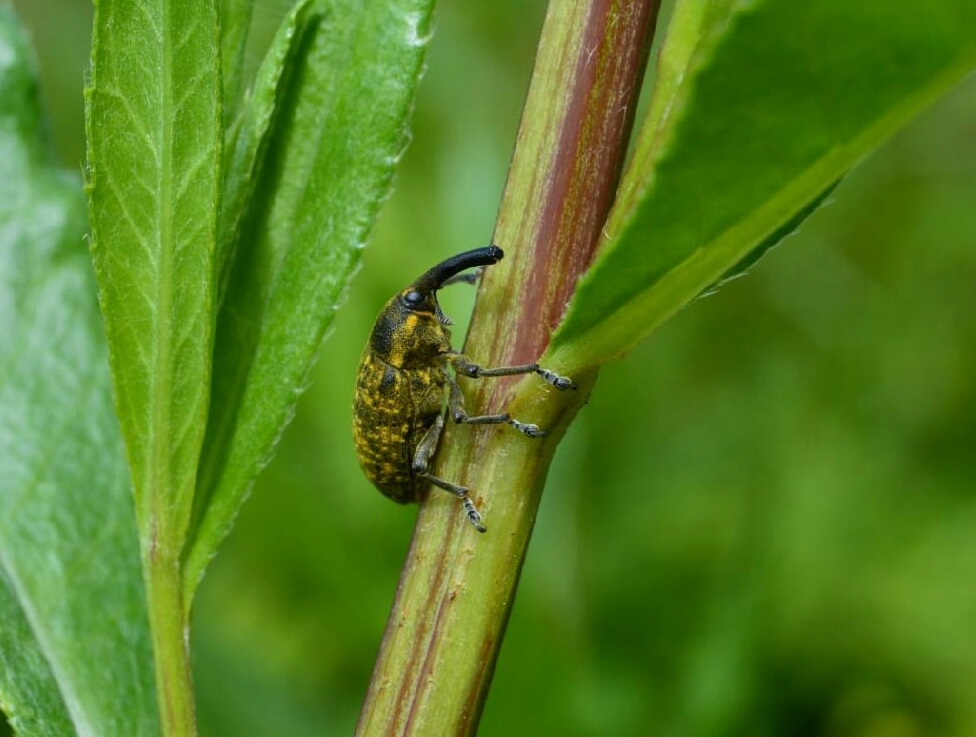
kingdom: Animalia
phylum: Arthropoda
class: Insecta
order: Coleoptera
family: Curculionidae
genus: Larinus
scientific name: Larinus sturnus
